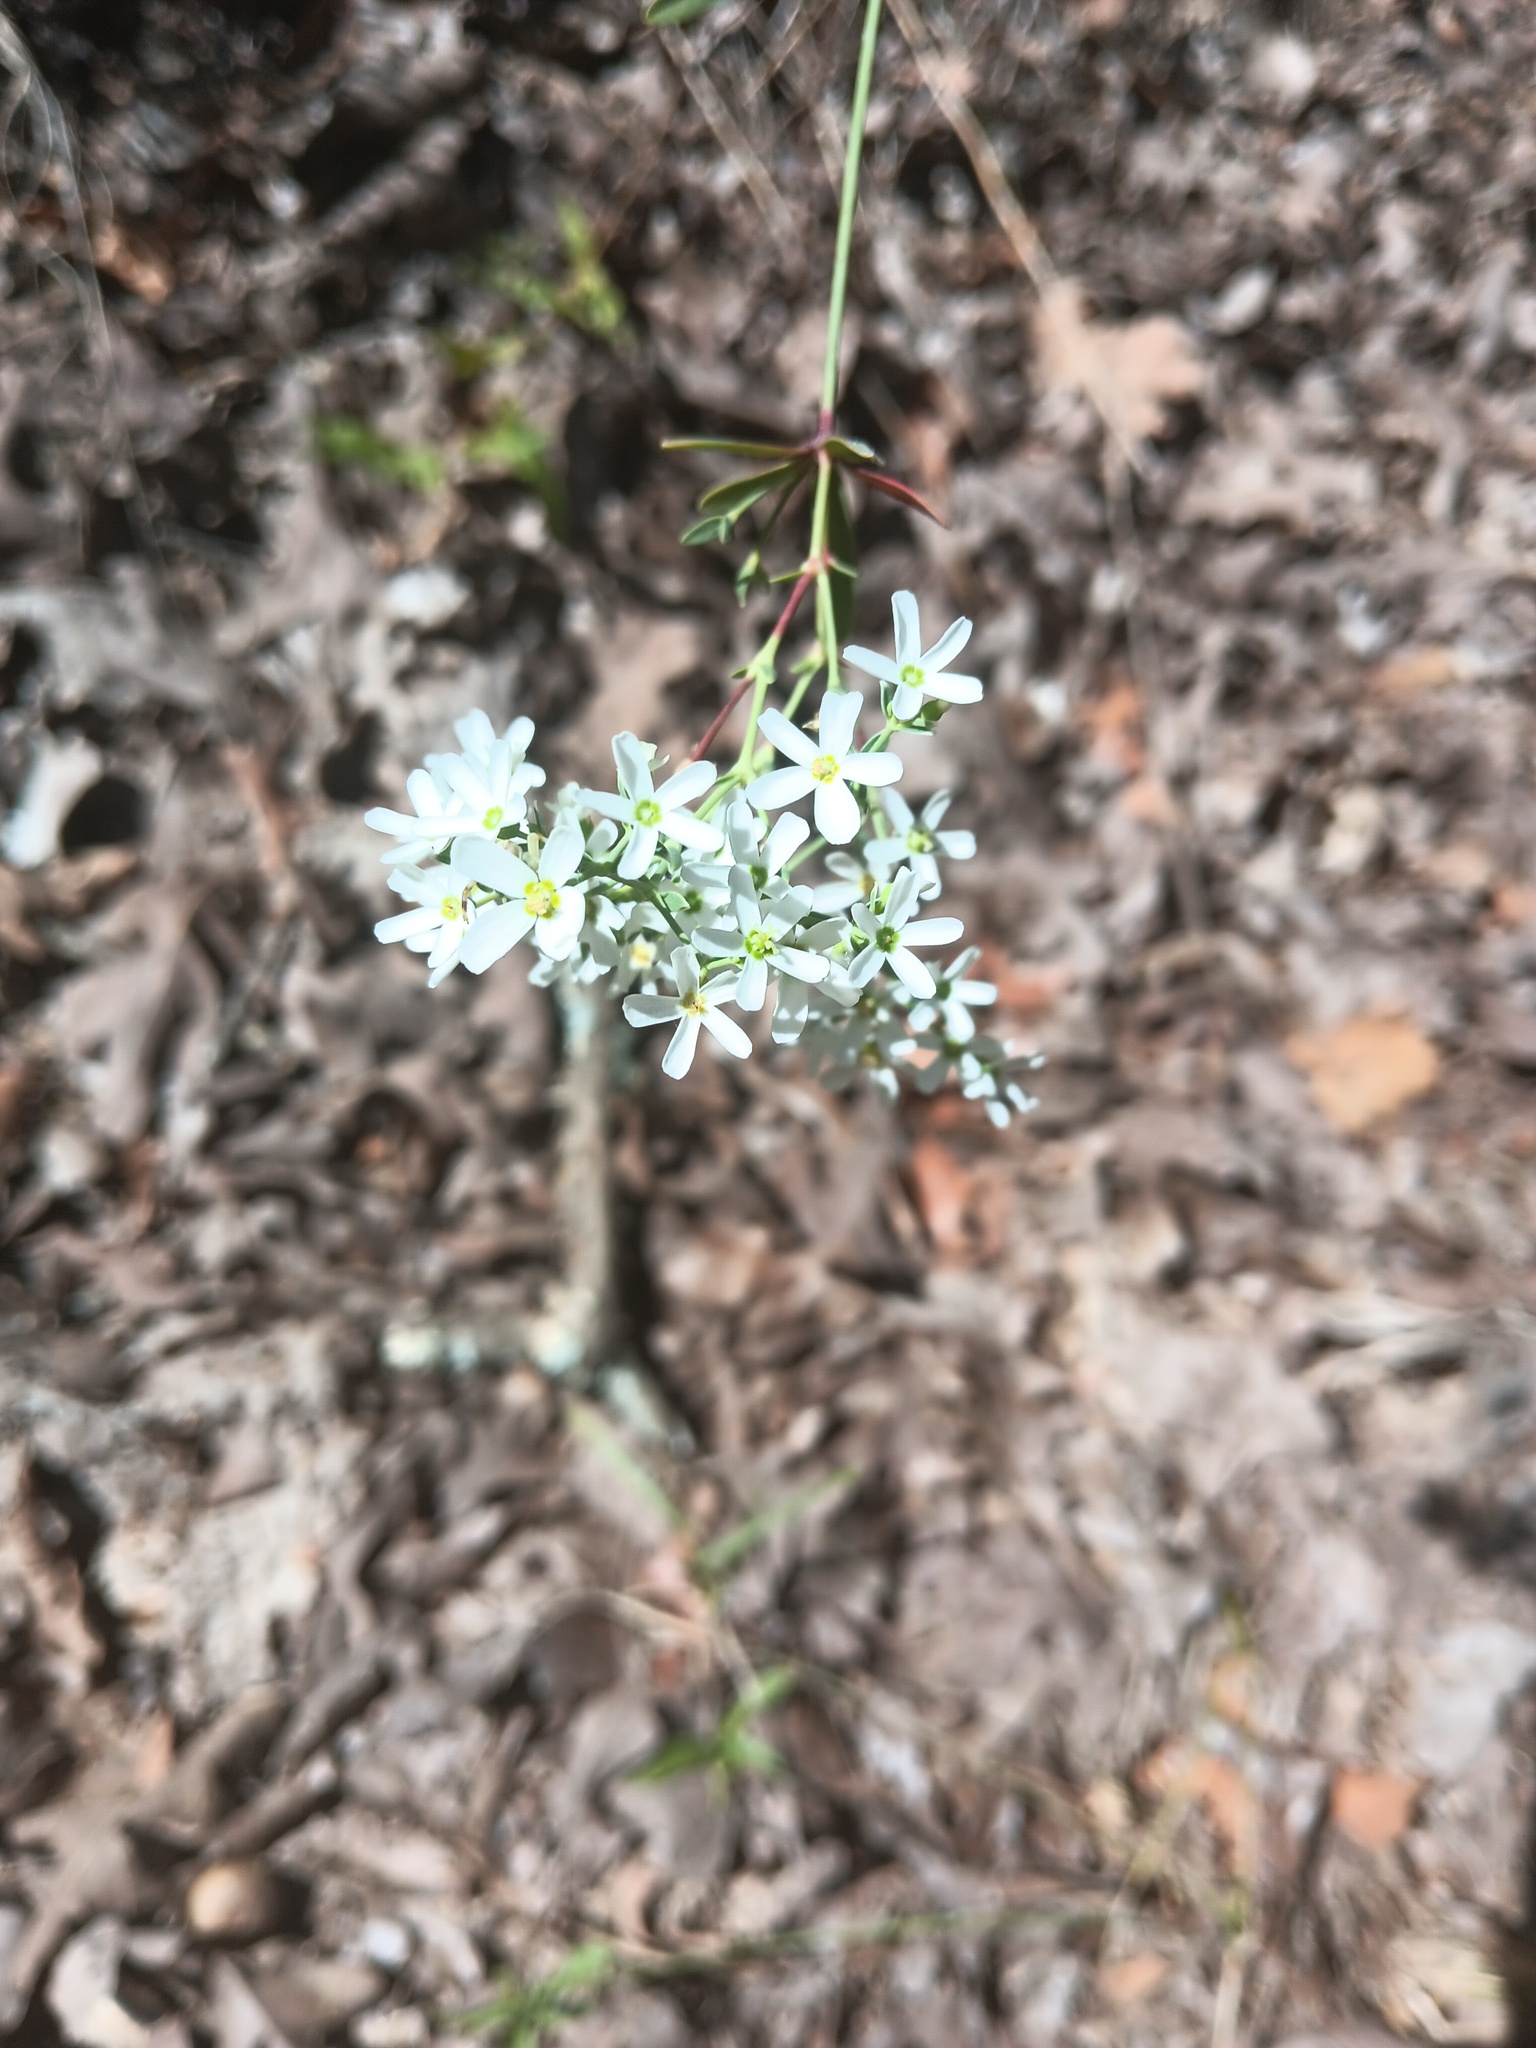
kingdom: Plantae
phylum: Tracheophyta
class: Magnoliopsida
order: Malpighiales
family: Euphorbiaceae
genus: Euphorbia
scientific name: Euphorbia corollata
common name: Flowering spurge
